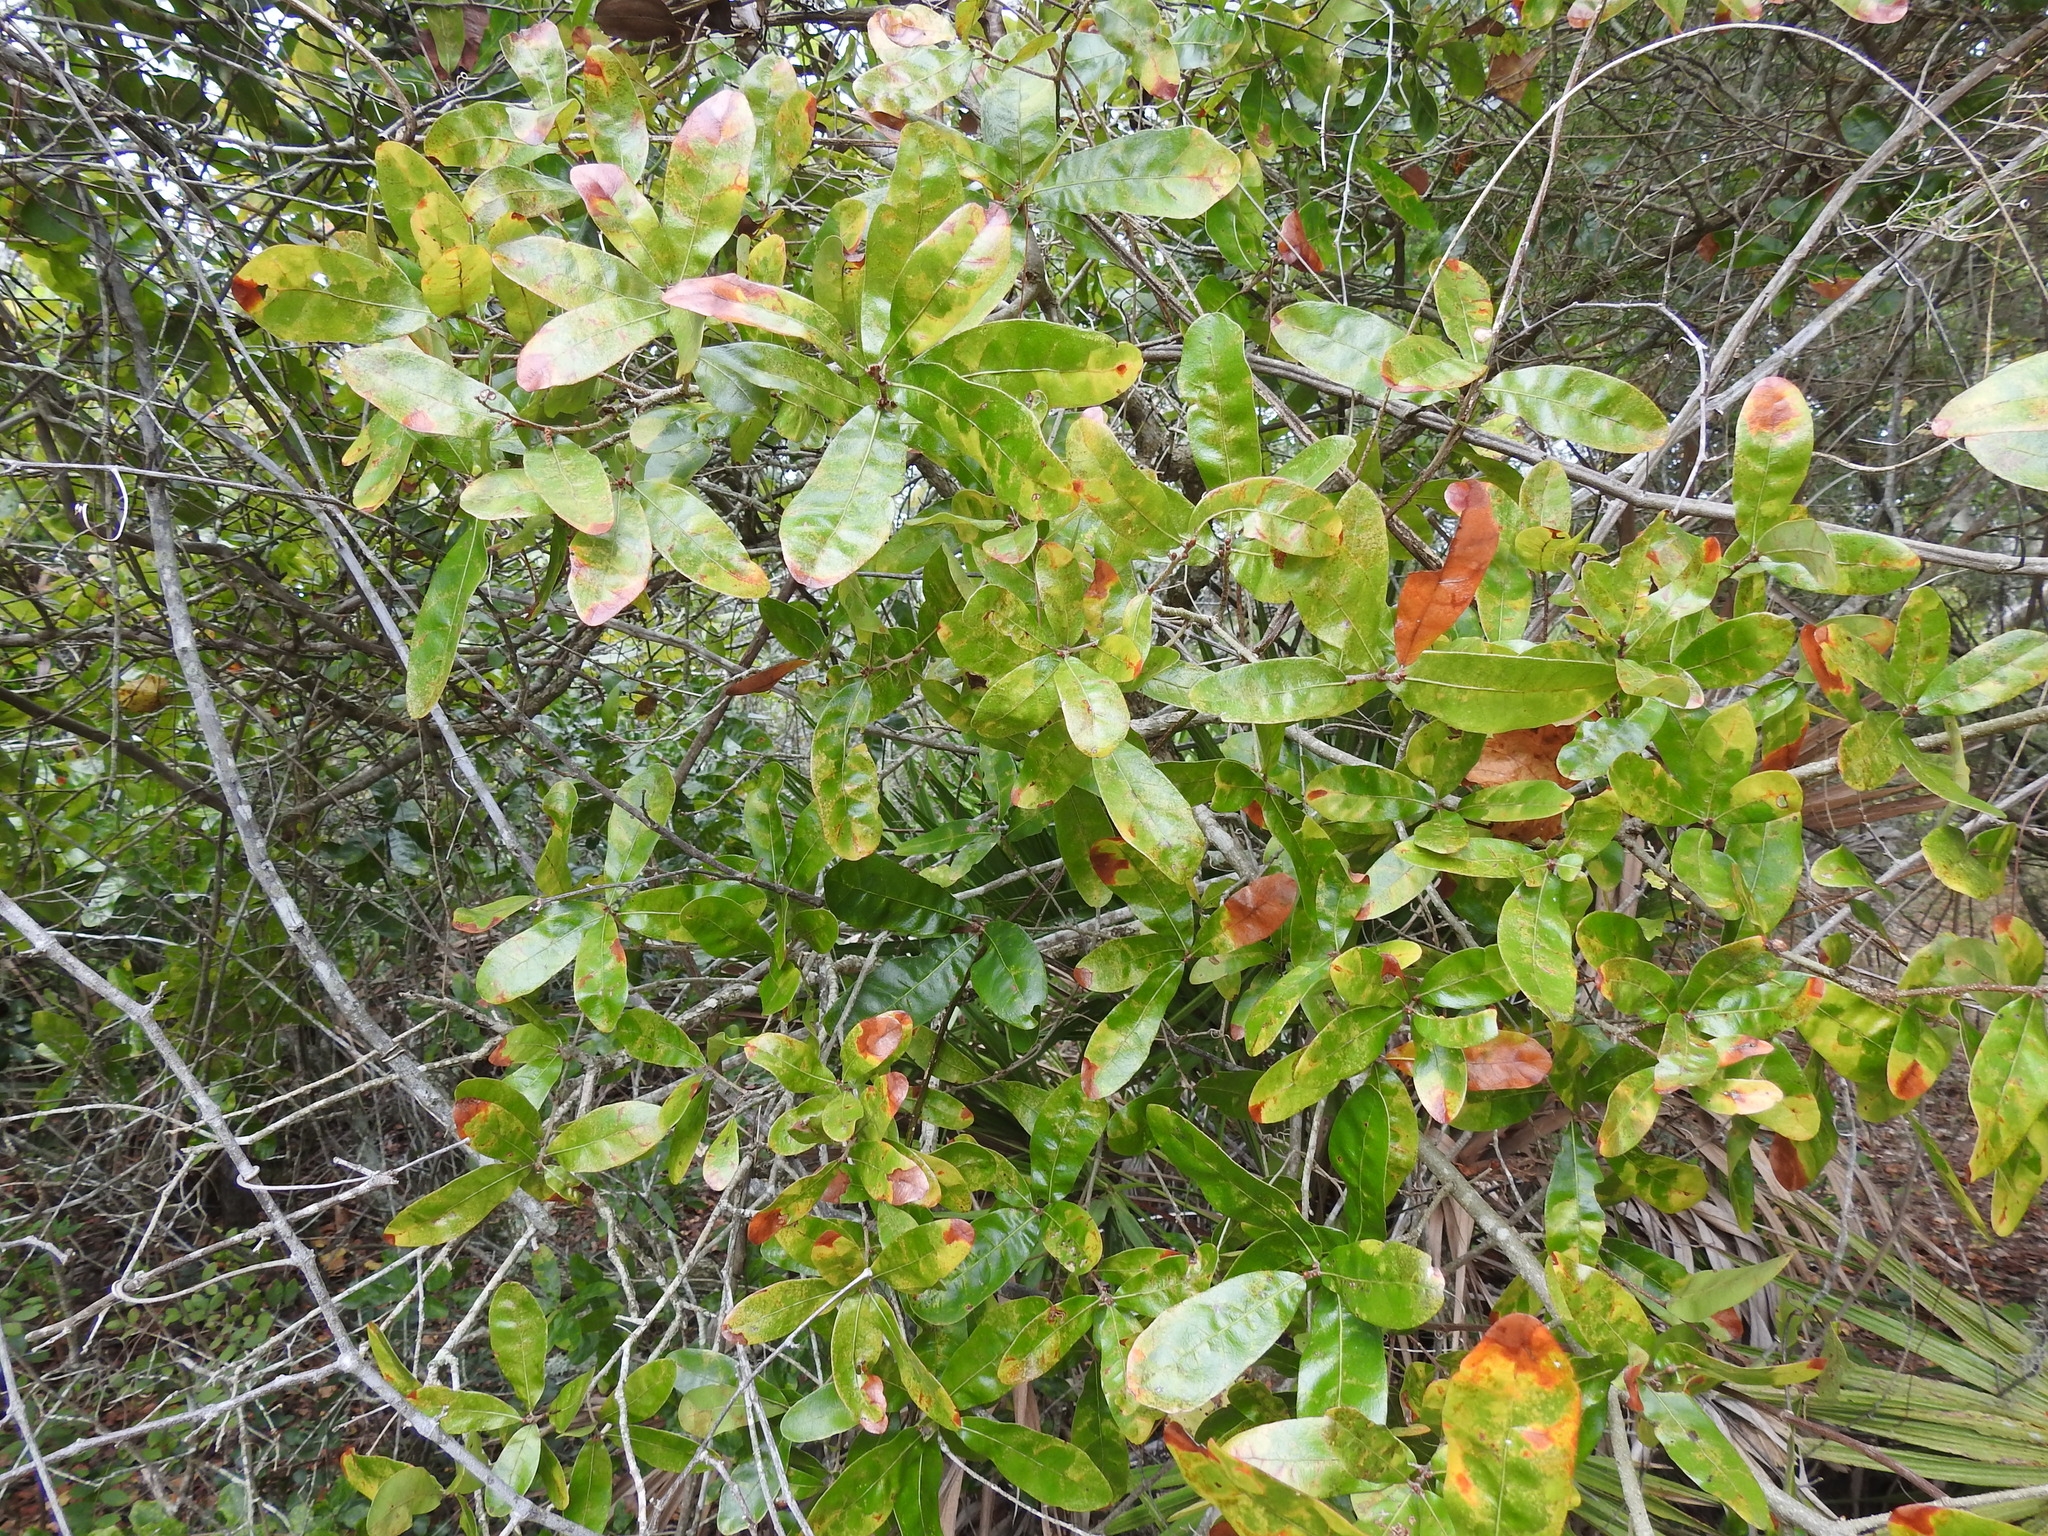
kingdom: Plantae
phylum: Tracheophyta
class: Magnoliopsida
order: Fagales
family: Fagaceae
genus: Quercus
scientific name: Quercus chapmanii
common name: Chapman oak
